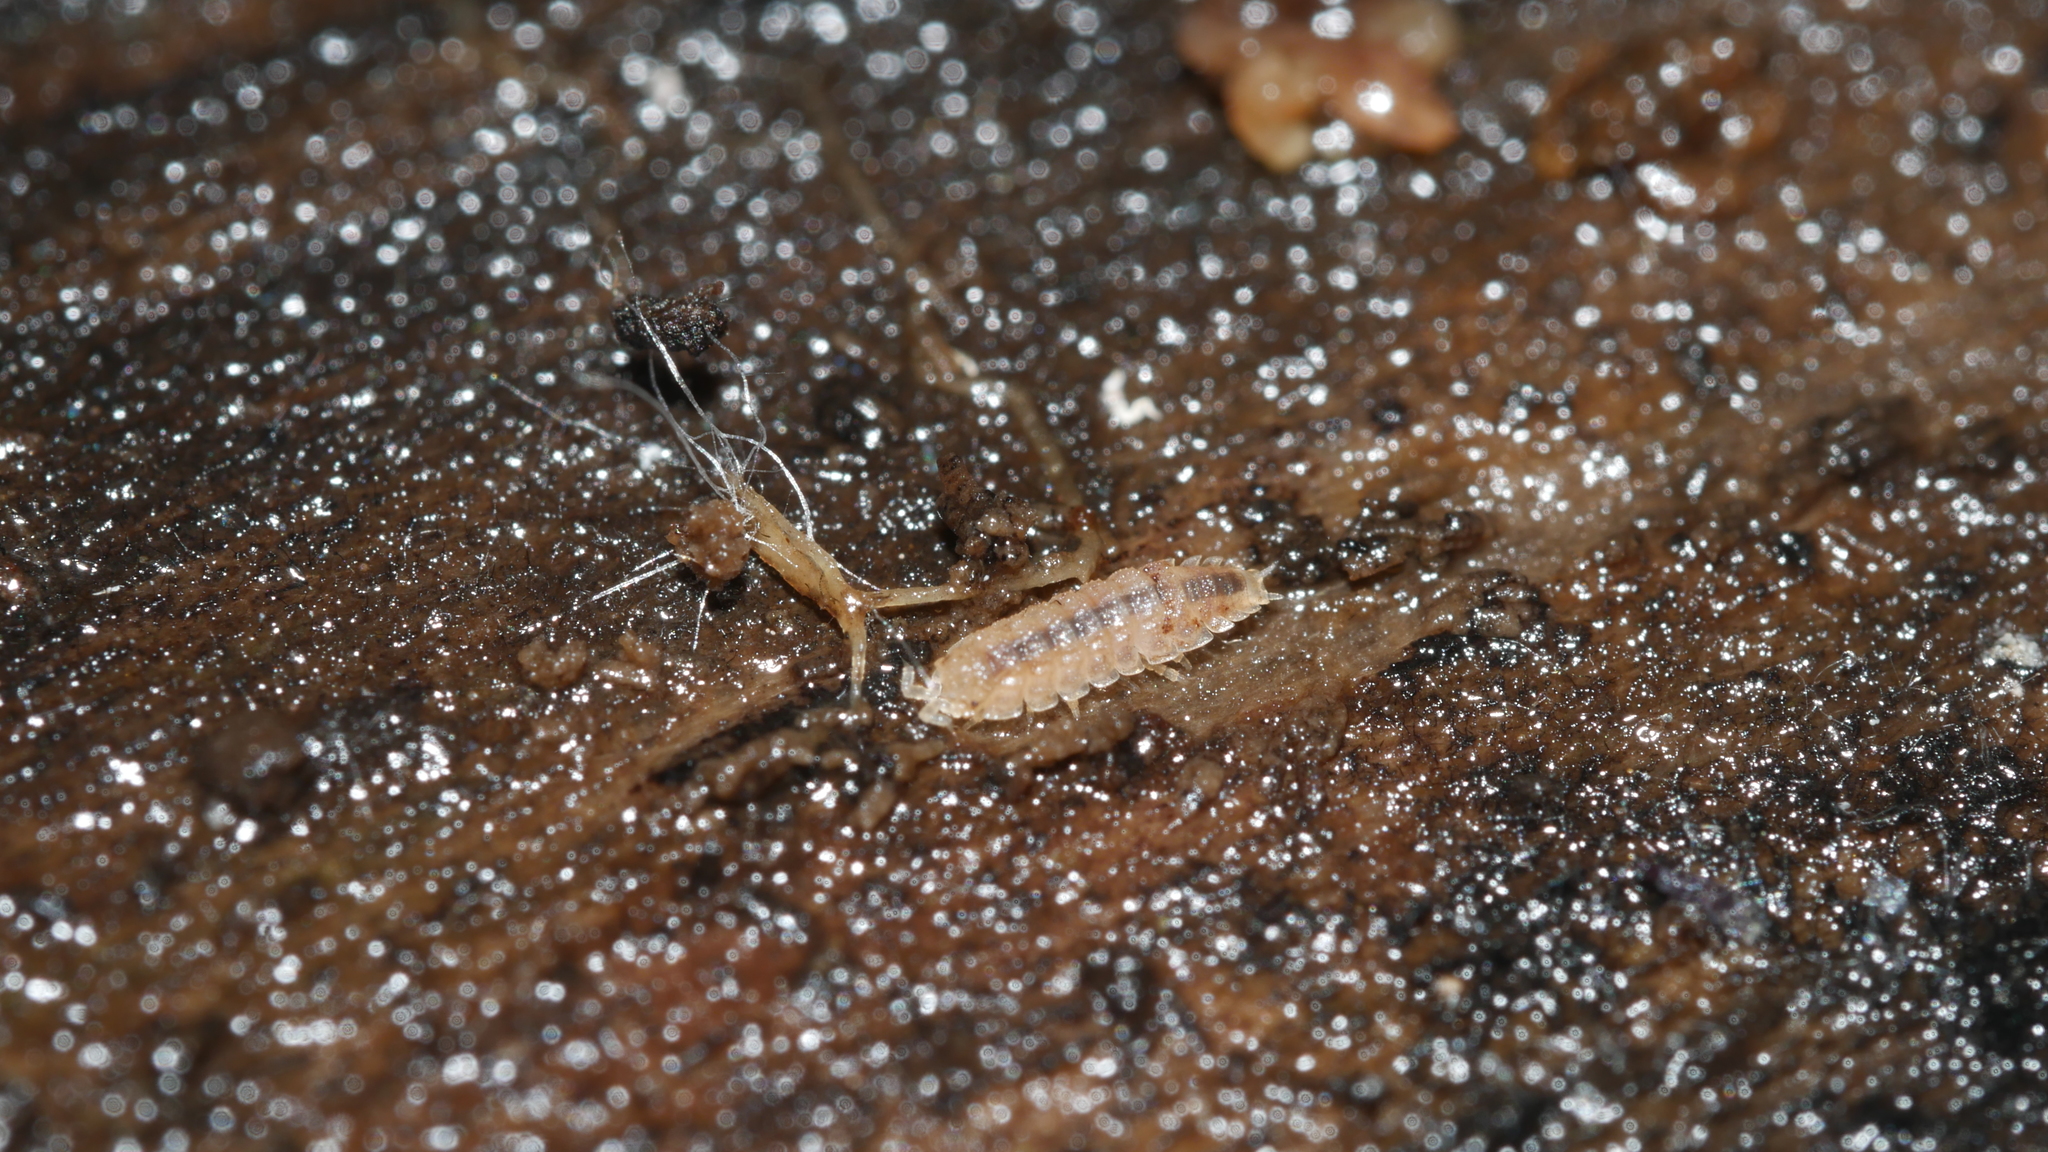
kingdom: Animalia
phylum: Arthropoda
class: Malacostraca
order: Isopoda
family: Trichoniscidae
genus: Haplophthalmus
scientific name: Haplophthalmus danicus
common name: Pillbug
